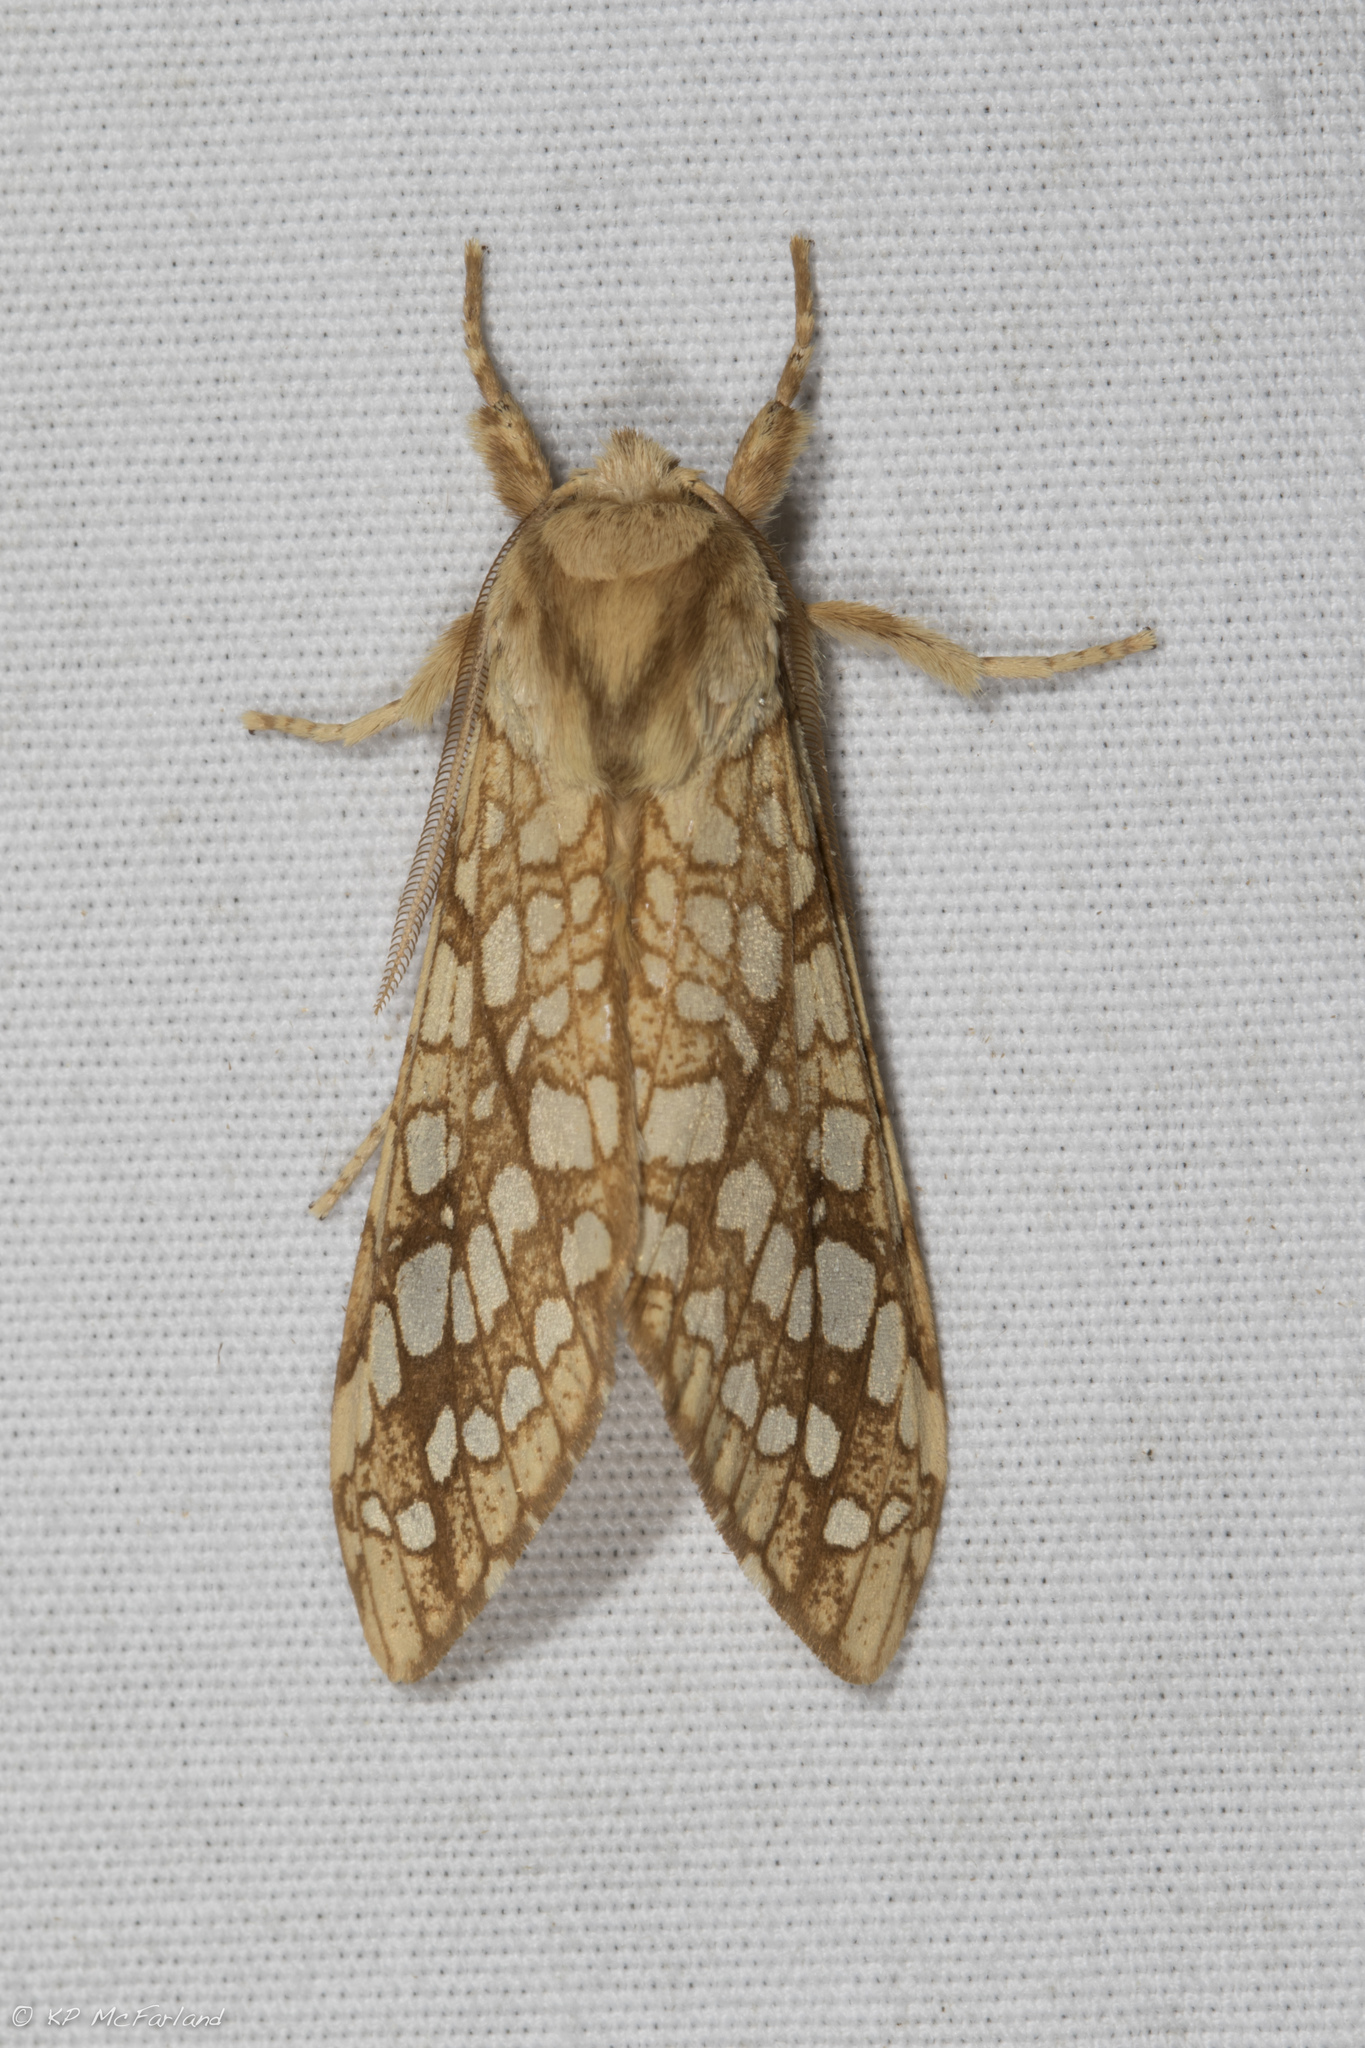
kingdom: Animalia
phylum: Arthropoda
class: Insecta
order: Lepidoptera
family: Erebidae
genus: Lophocampa
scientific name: Lophocampa caryae
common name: Hickory tussock moth
